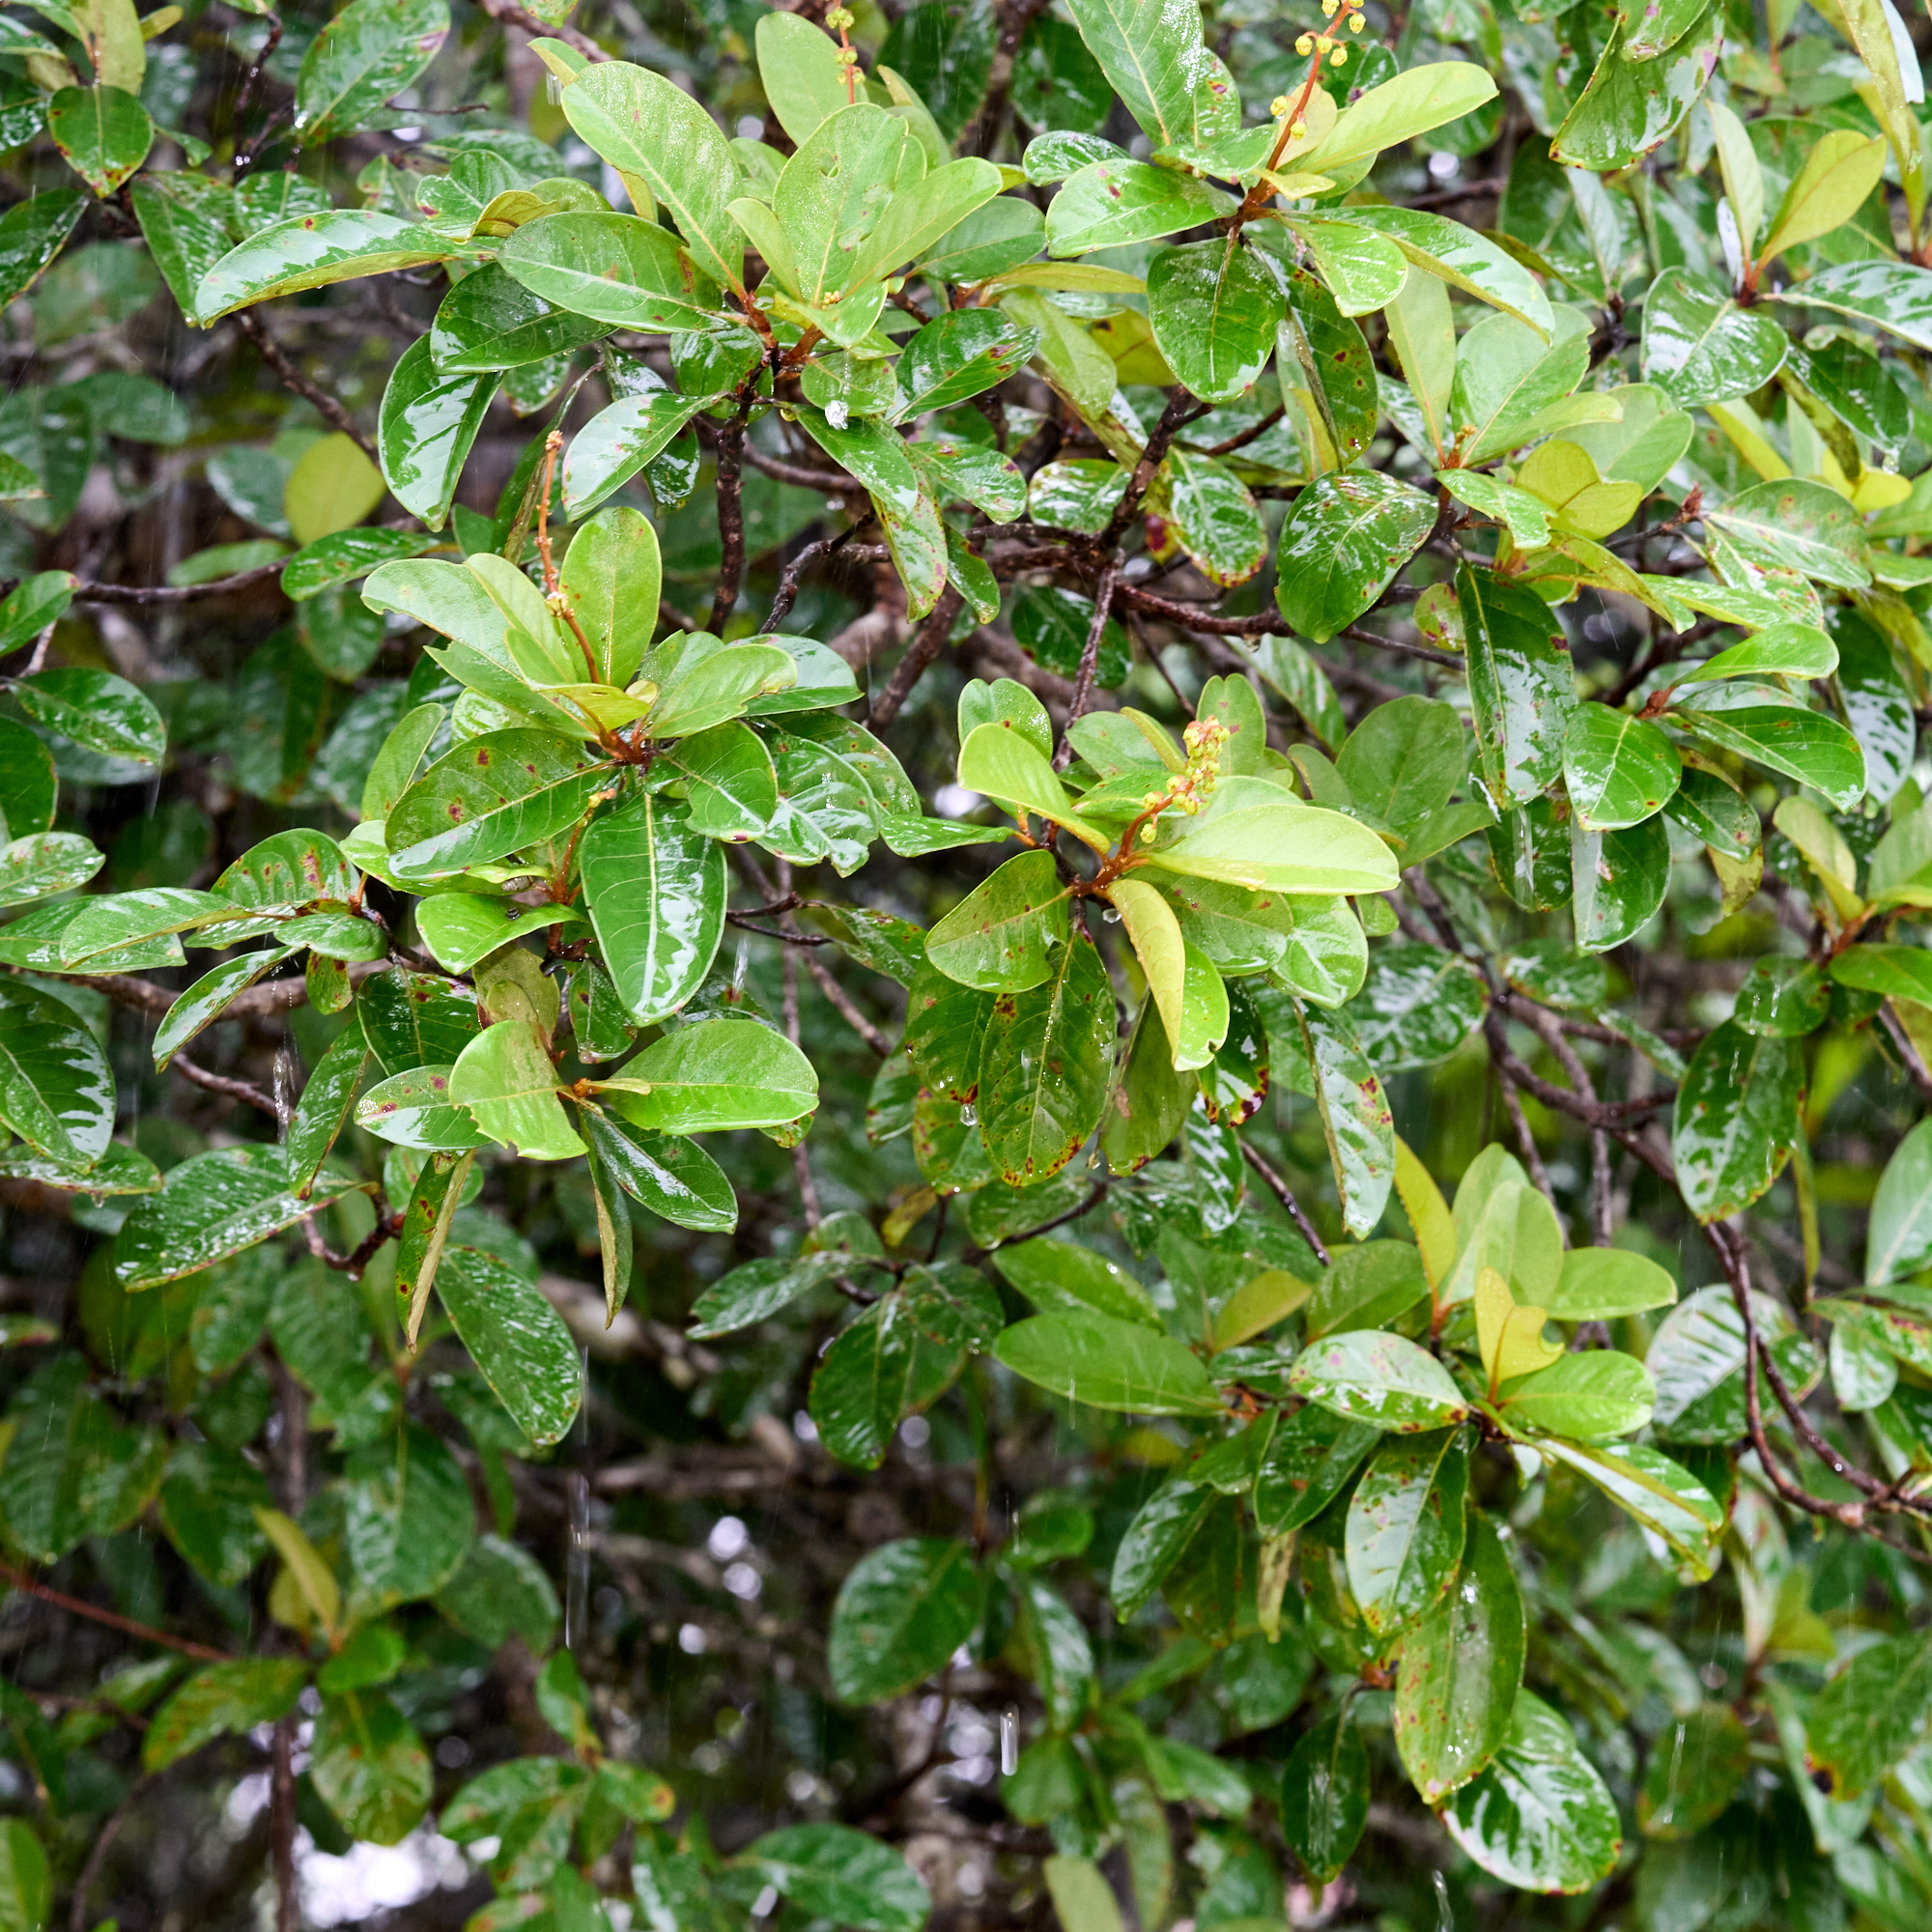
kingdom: Plantae
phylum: Tracheophyta
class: Magnoliopsida
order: Malpighiales
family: Malpighiaceae
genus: Byrsonima
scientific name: Byrsonima crassifolia
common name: Golden spoon
